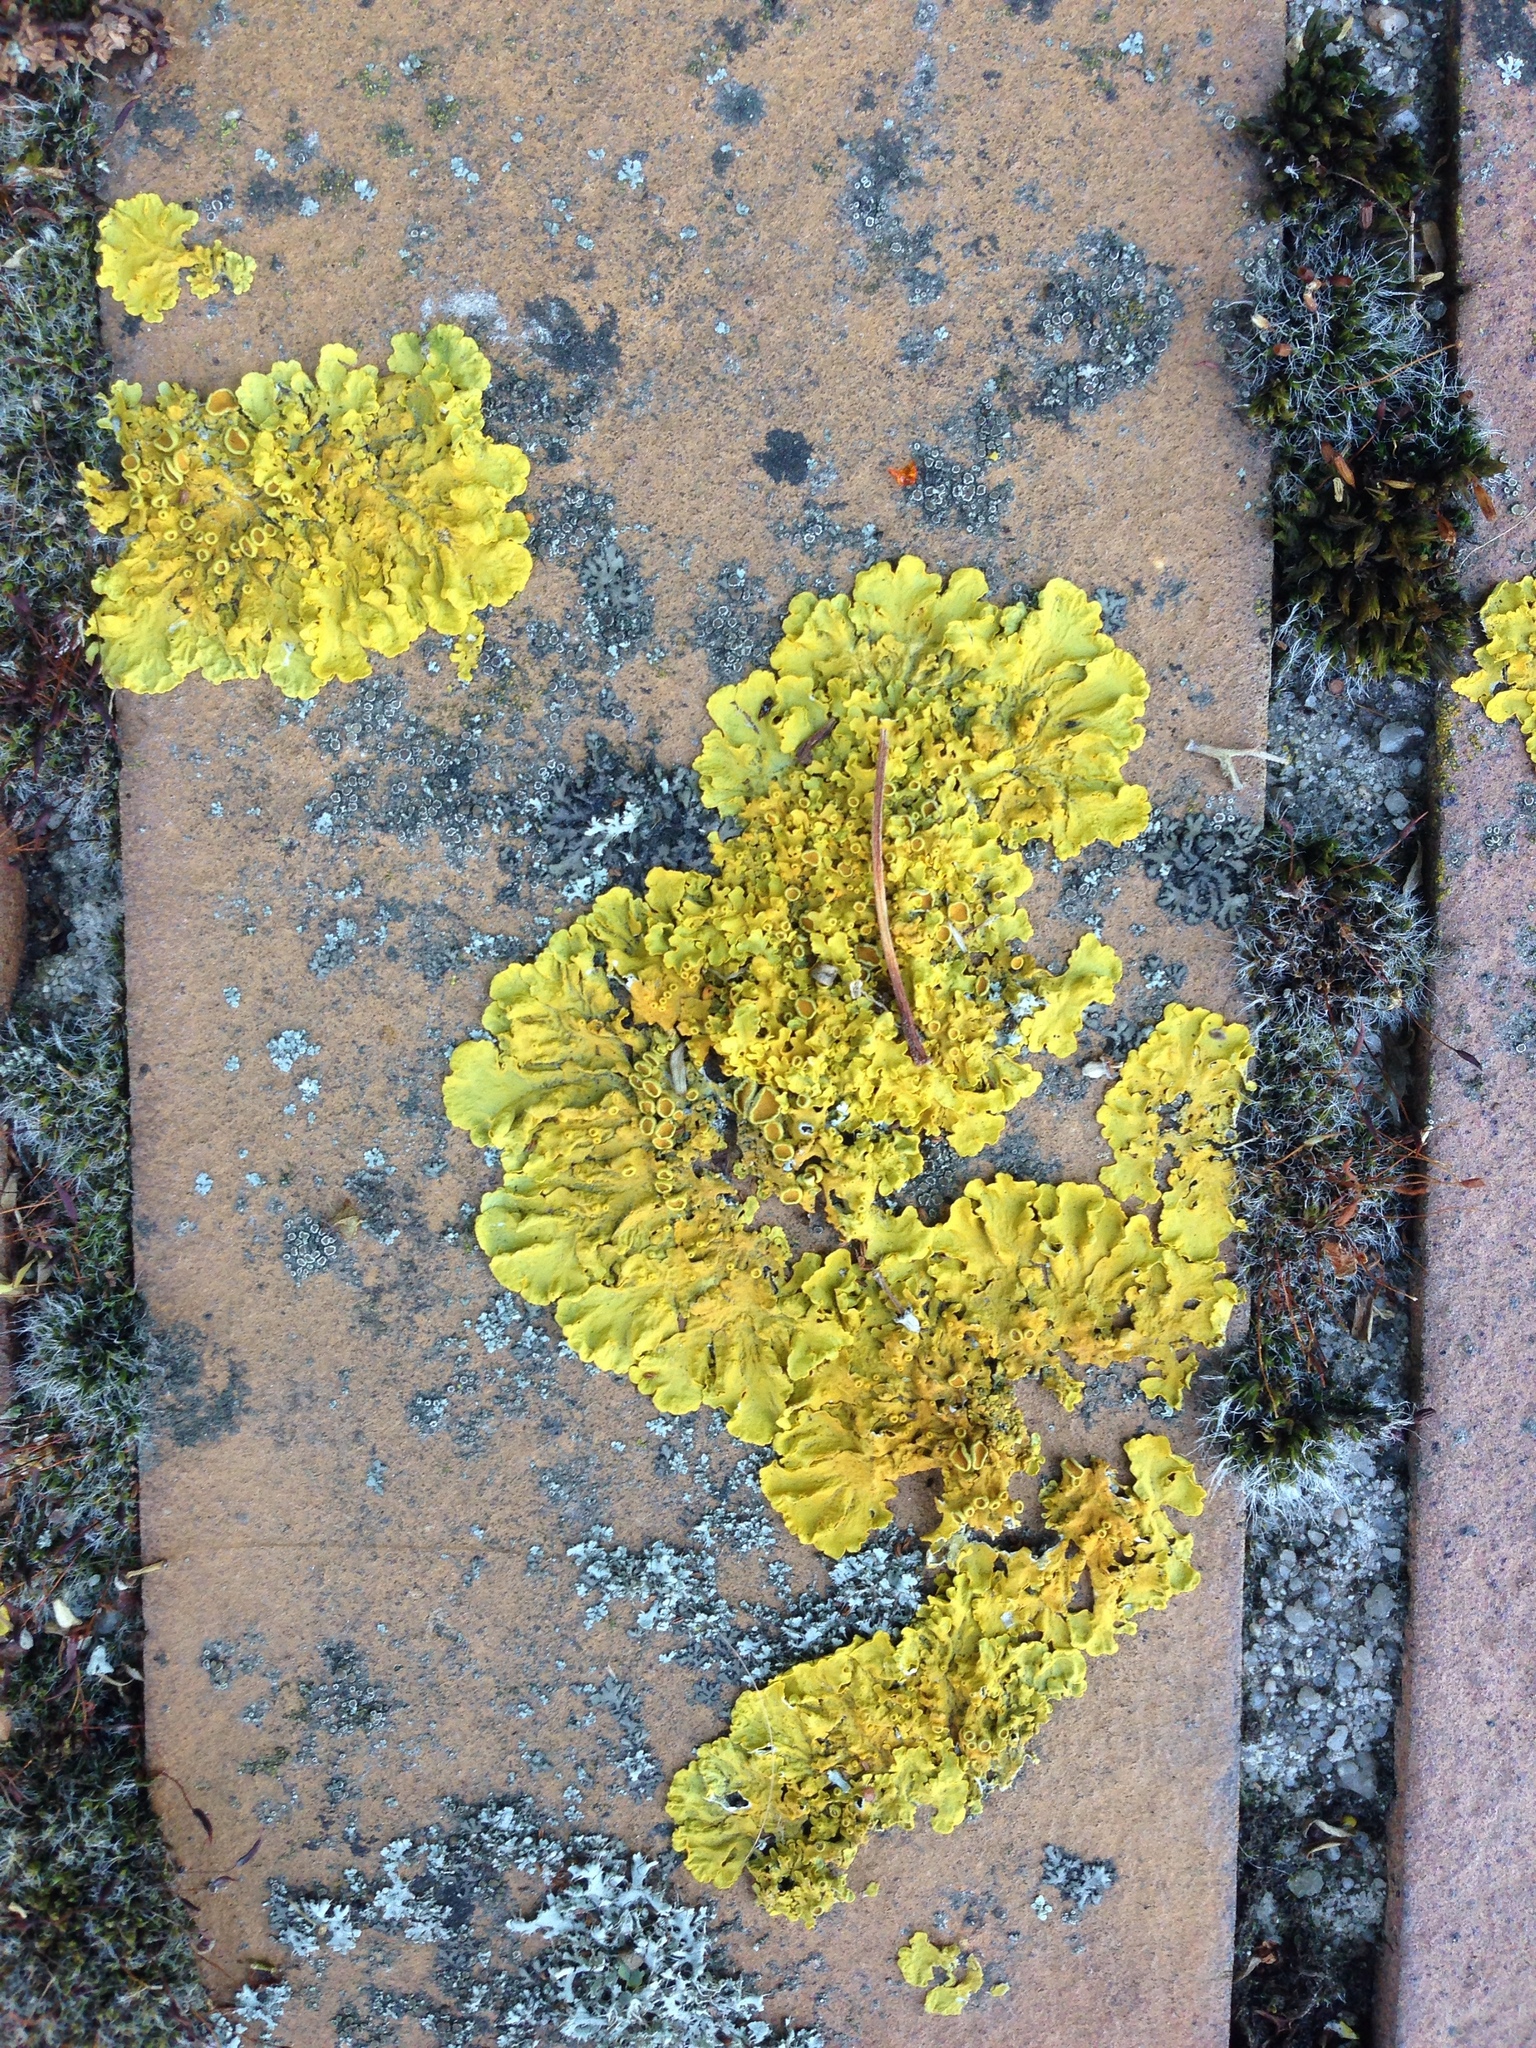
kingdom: Fungi
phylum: Ascomycota
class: Lecanoromycetes
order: Teloschistales
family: Teloschistaceae
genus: Xanthoria
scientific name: Xanthoria parietina
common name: Common orange lichen
